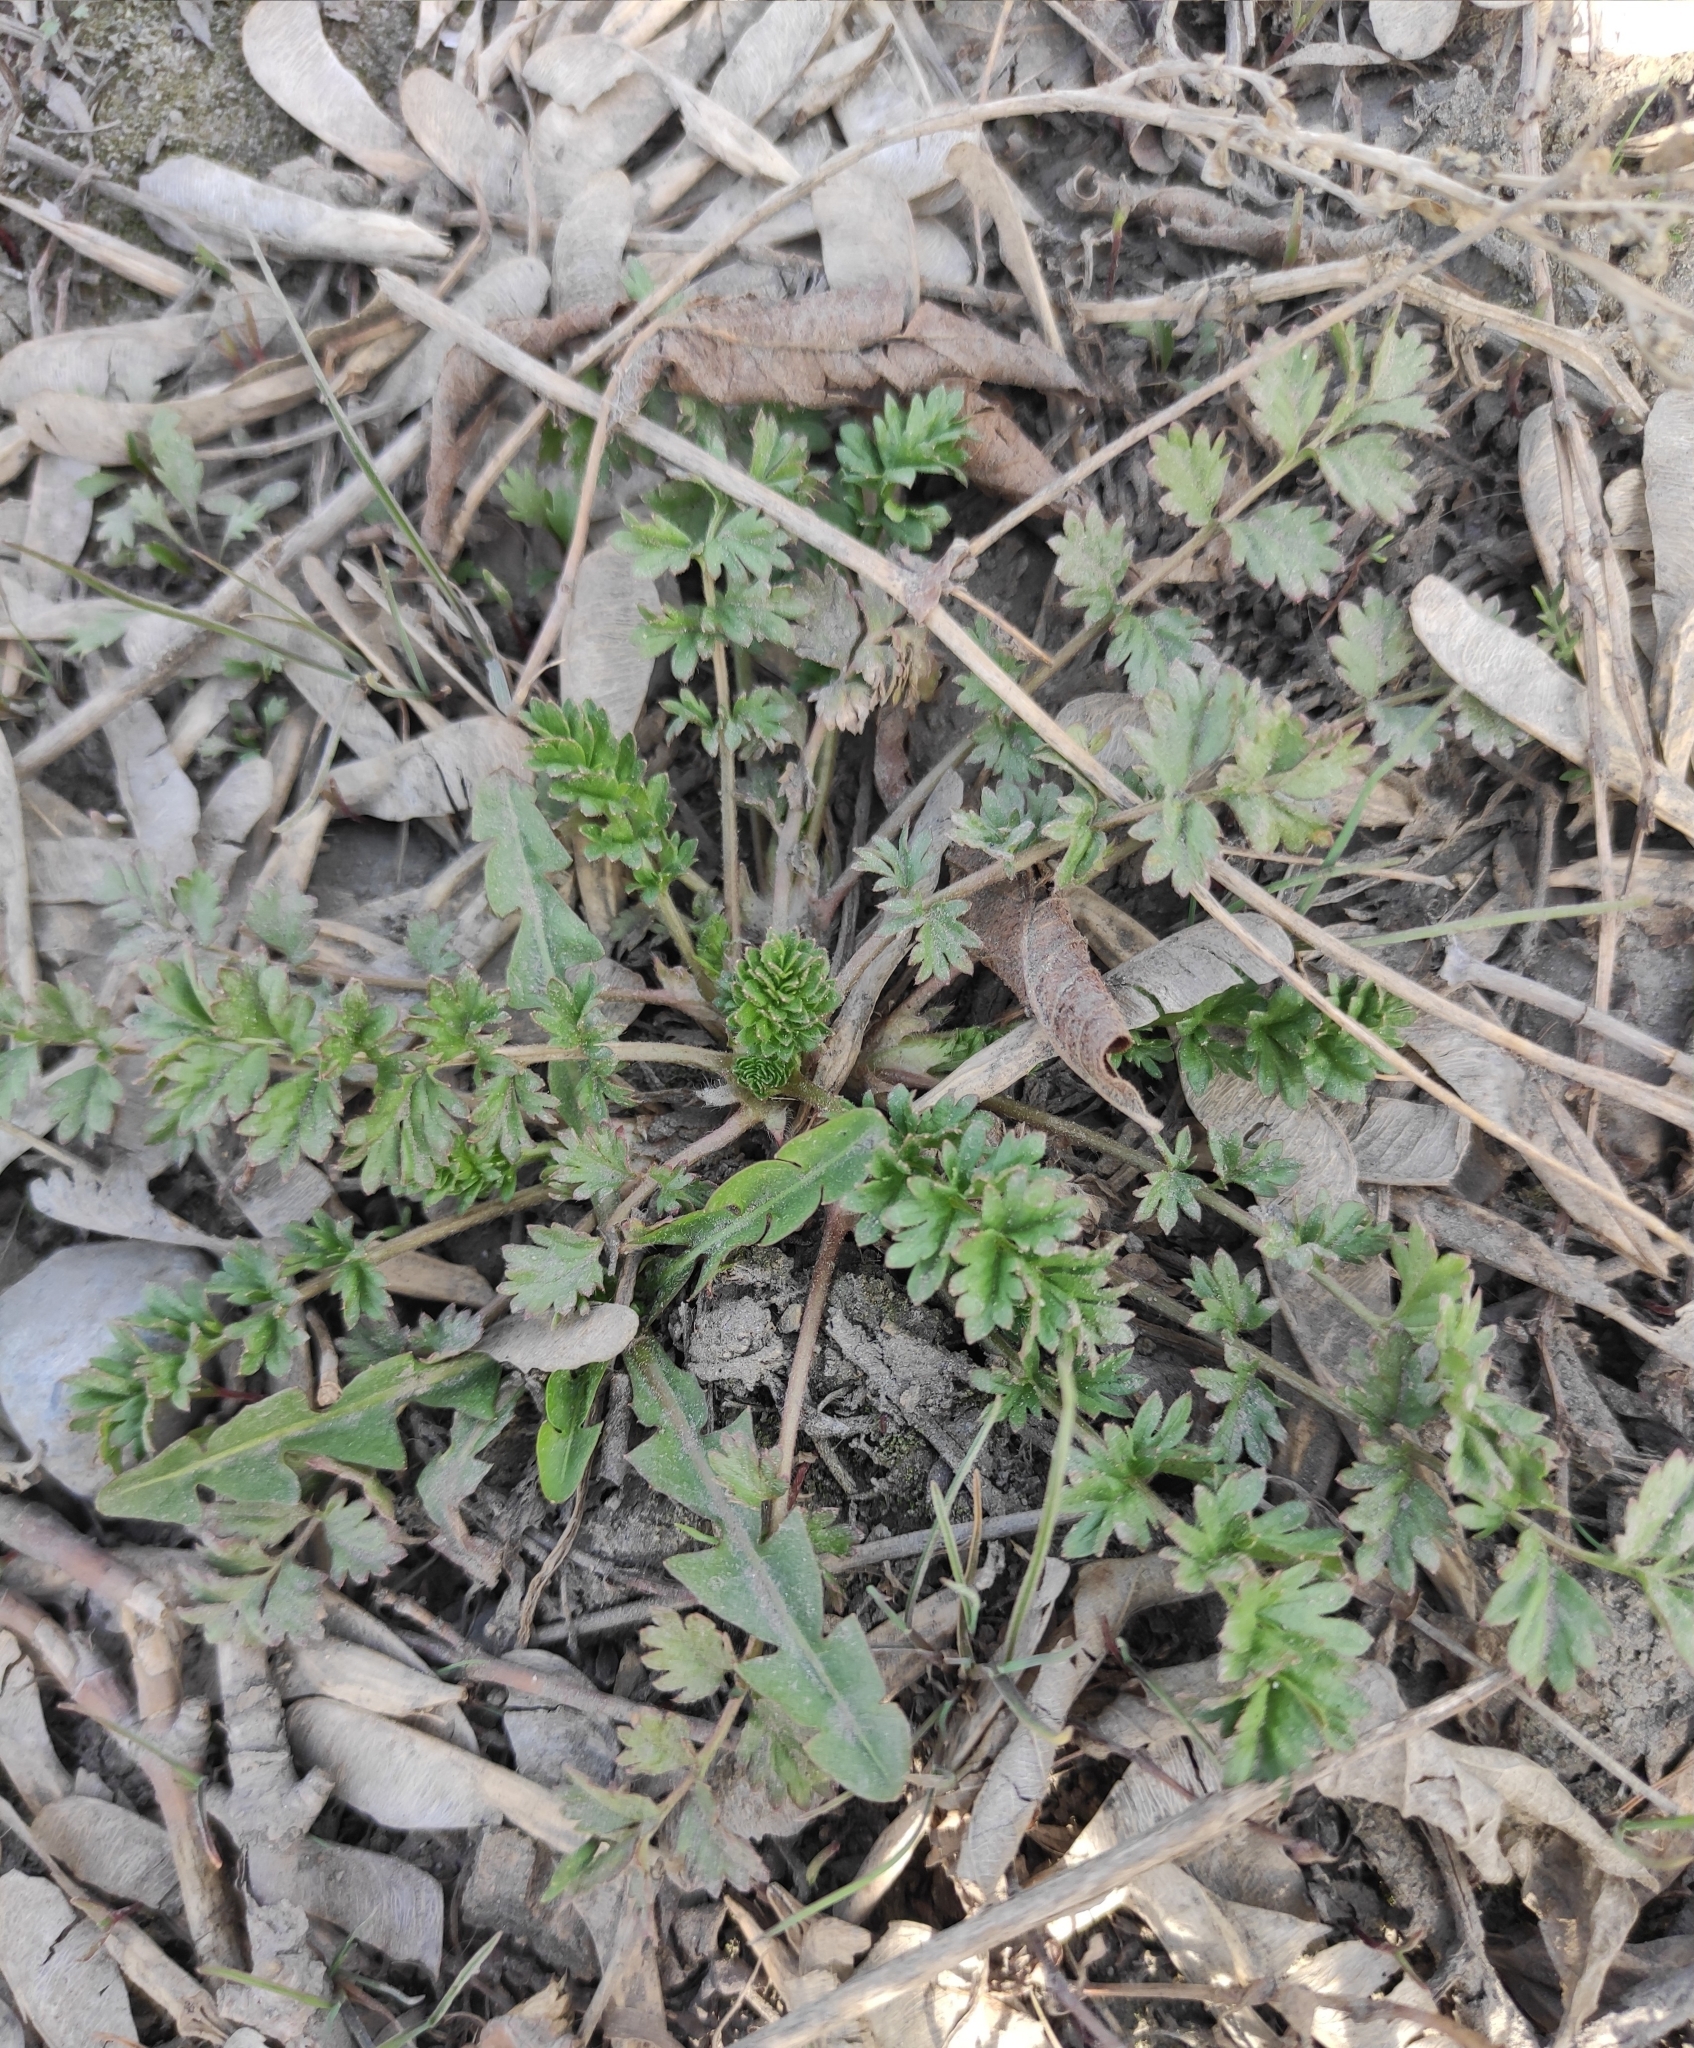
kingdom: Plantae
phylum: Tracheophyta
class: Magnoliopsida
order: Rosales
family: Rosaceae
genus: Potentilla
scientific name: Potentilla supina
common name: Prostrate cinquefoil
